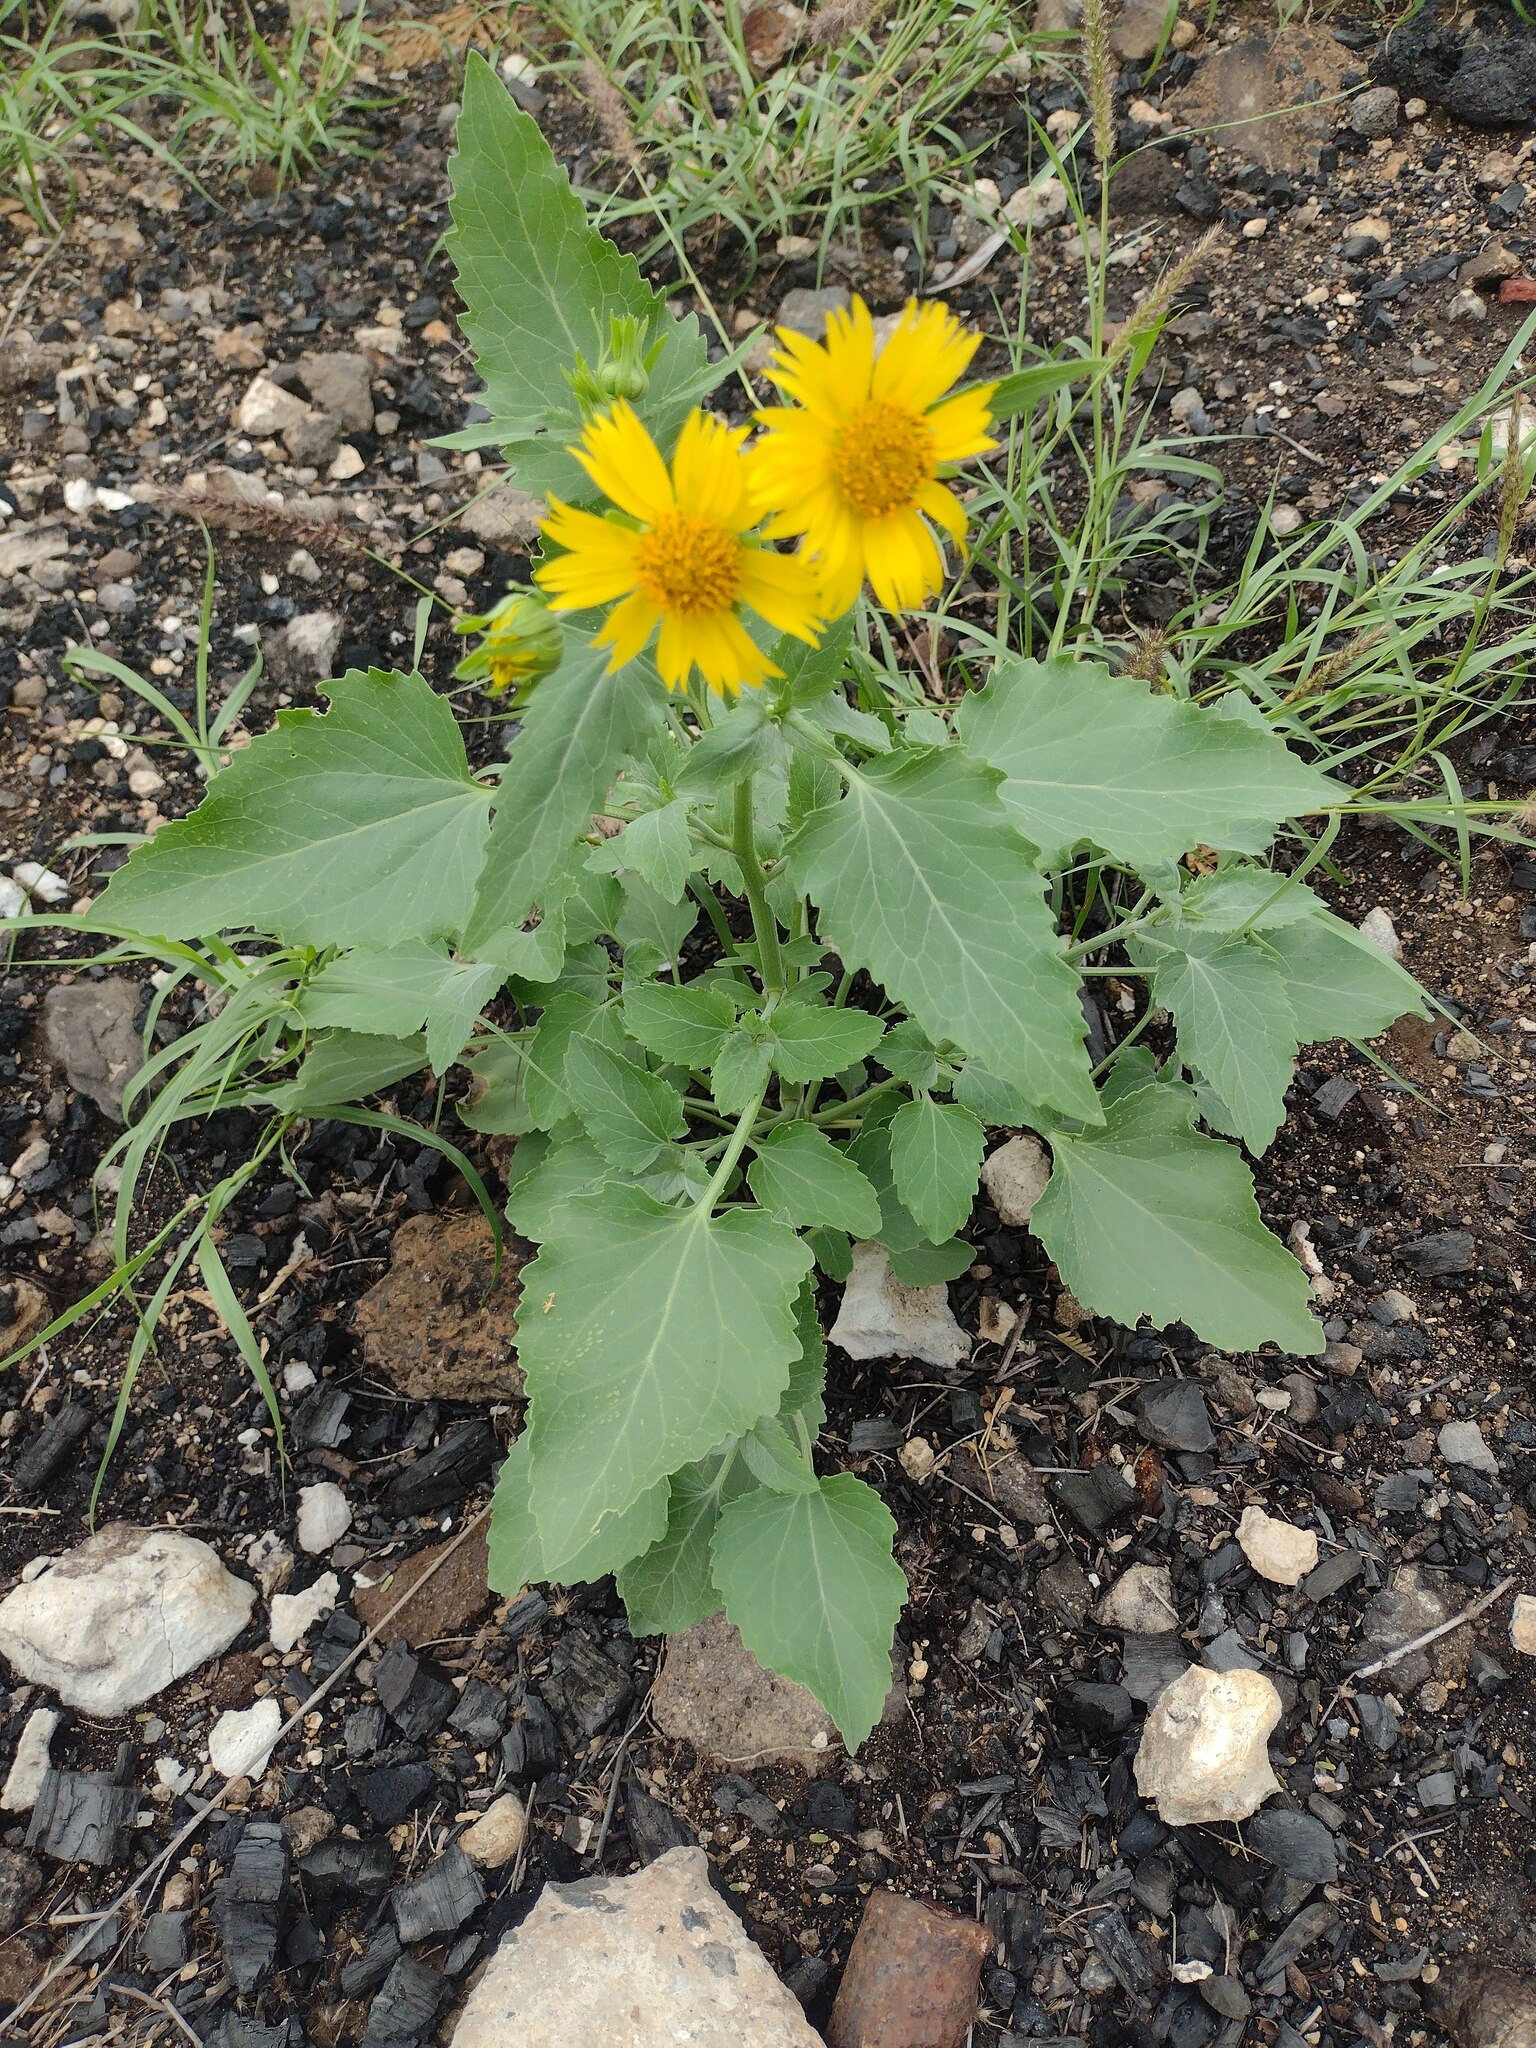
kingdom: Plantae
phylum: Tracheophyta
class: Magnoliopsida
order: Asterales
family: Asteraceae
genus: Verbesina
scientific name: Verbesina encelioides
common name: Golden crownbeard
